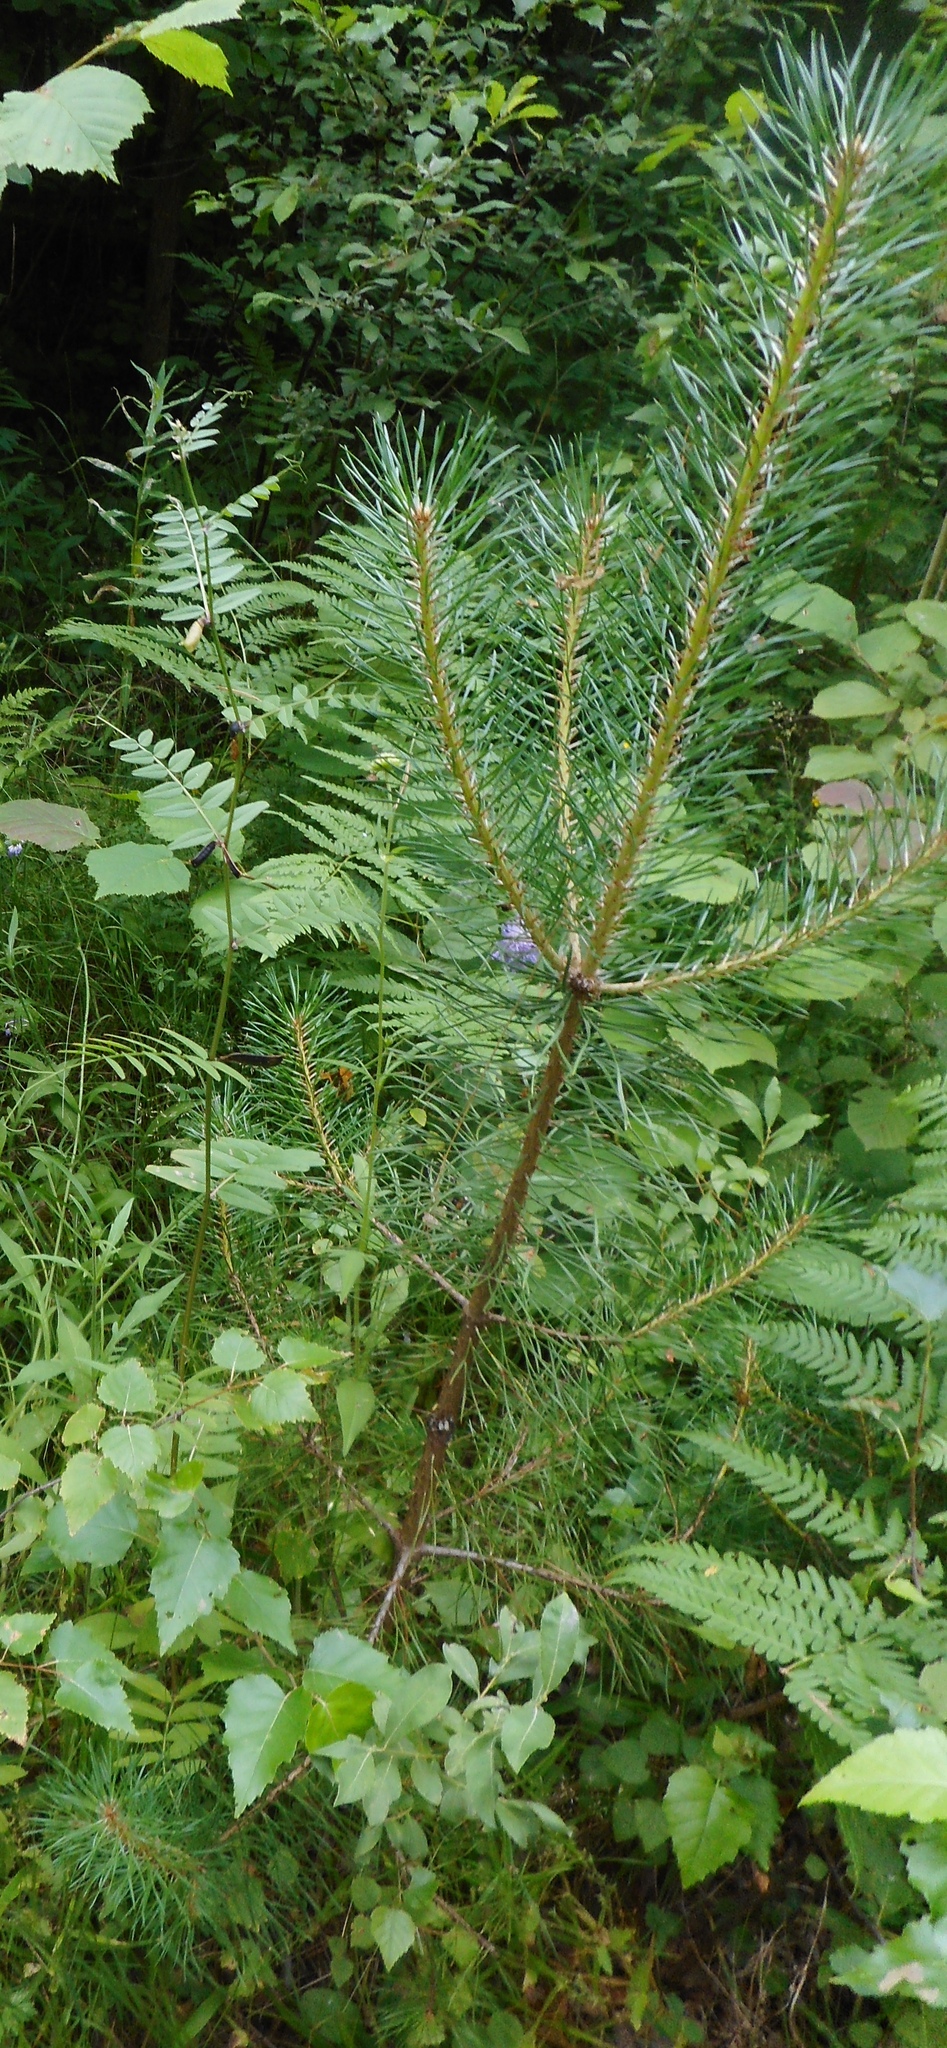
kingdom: Plantae
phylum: Tracheophyta
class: Pinopsida
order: Pinales
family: Pinaceae
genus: Pinus
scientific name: Pinus sylvestris
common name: Scots pine
